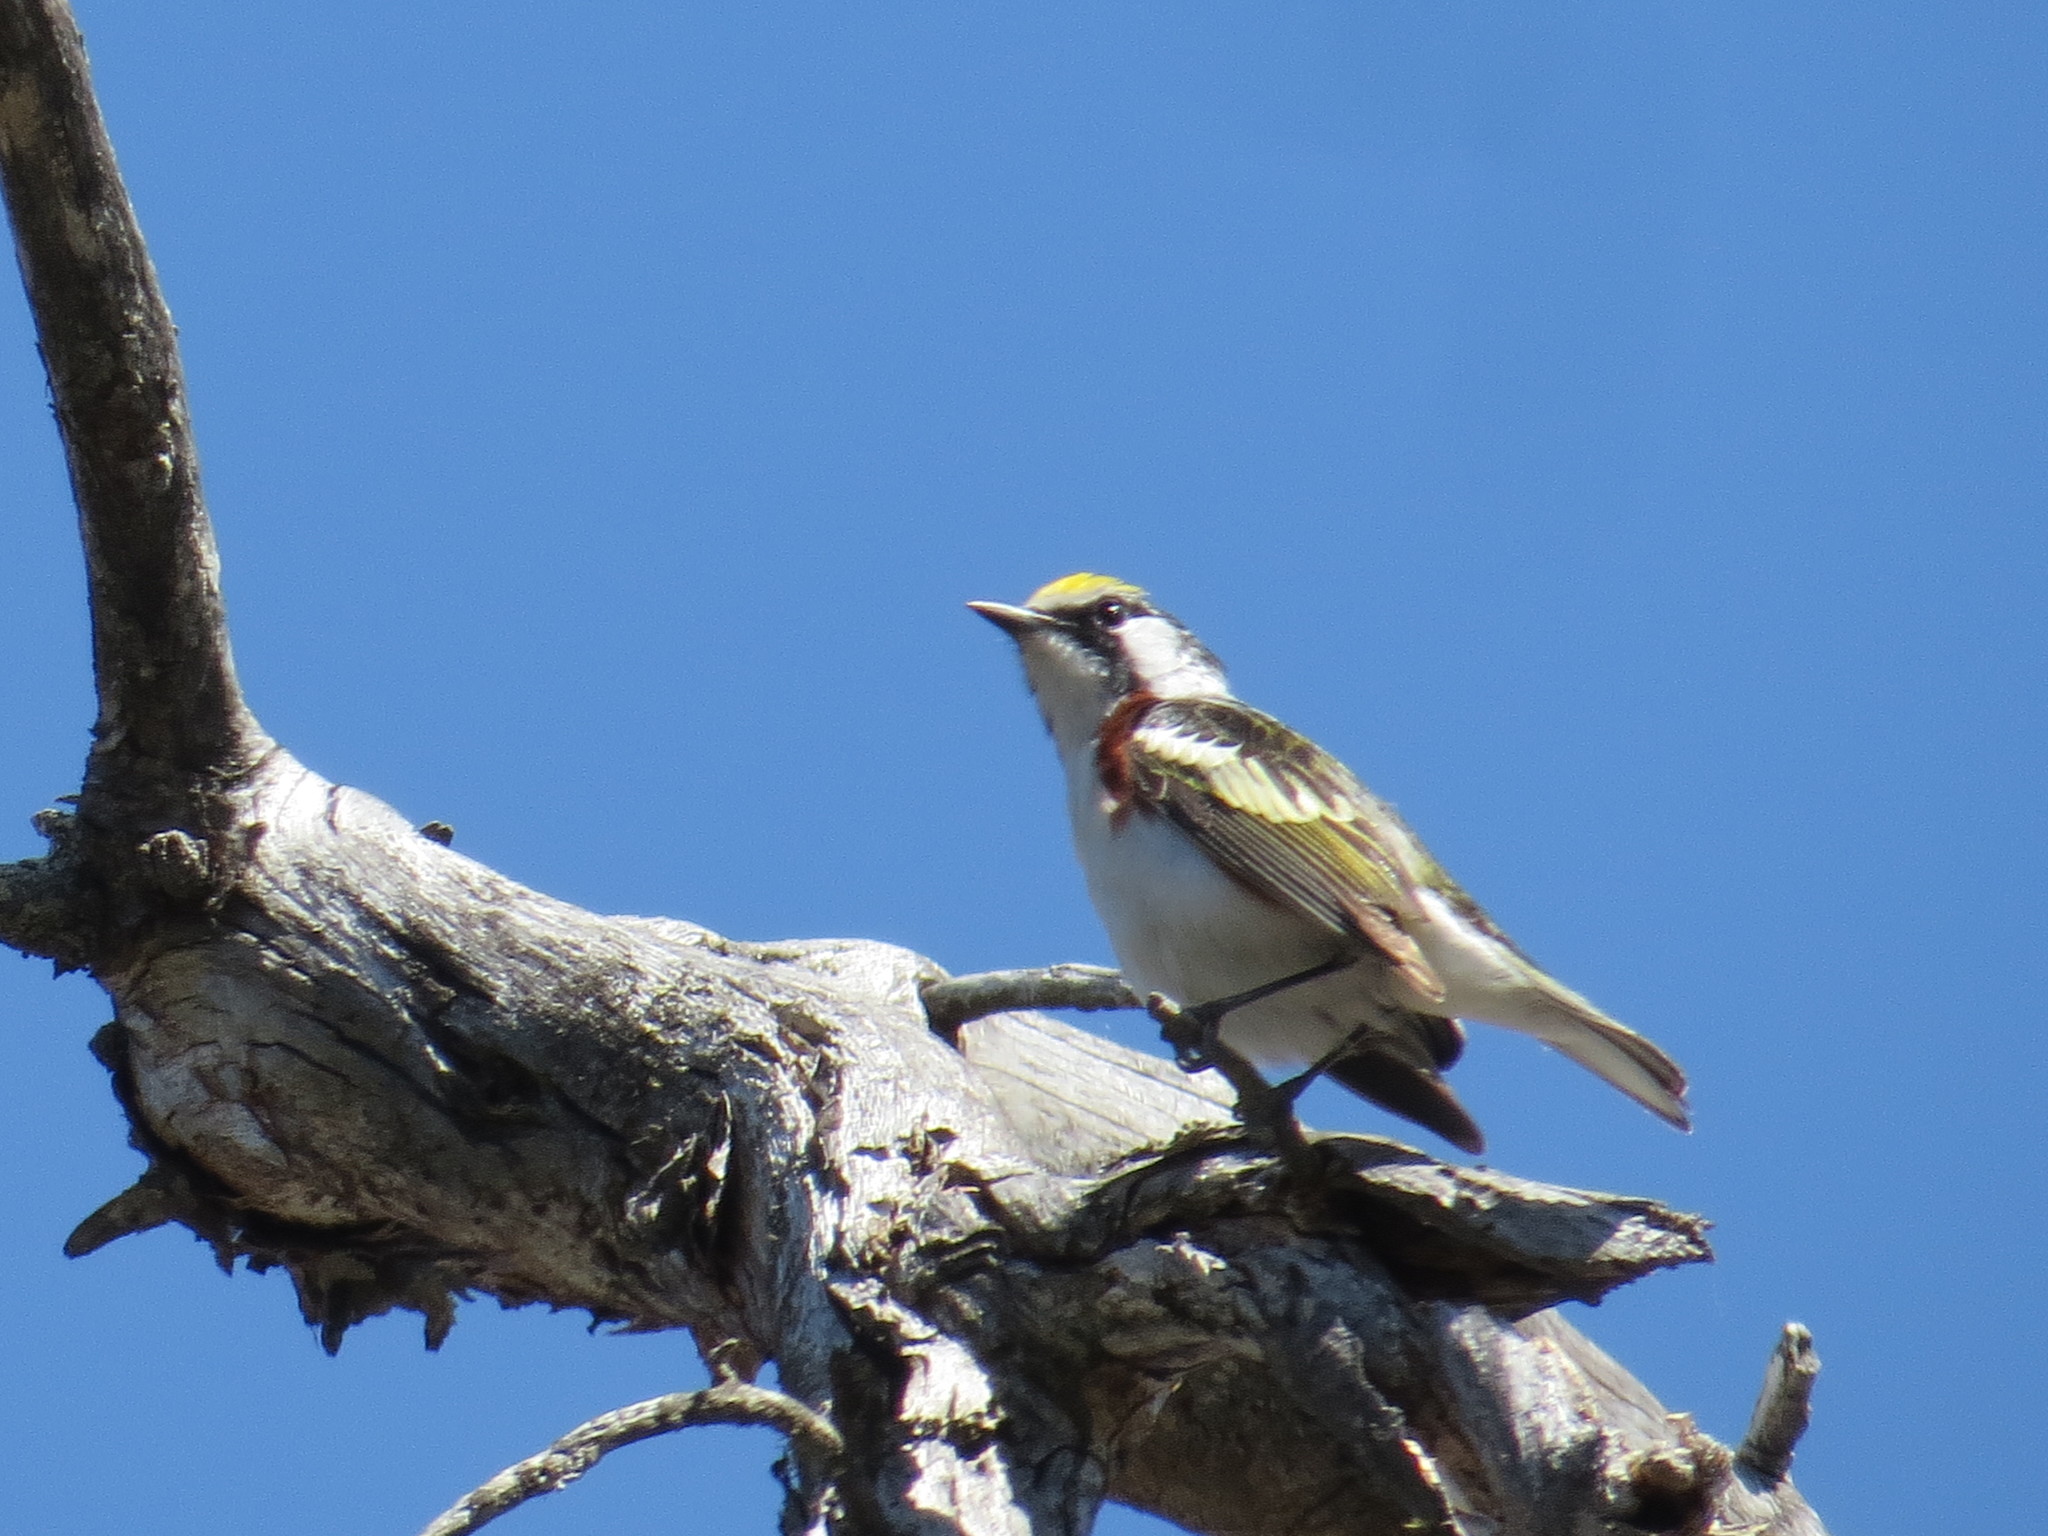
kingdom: Animalia
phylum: Chordata
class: Aves
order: Passeriformes
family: Parulidae
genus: Setophaga
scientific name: Setophaga pensylvanica
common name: Chestnut-sided warbler
